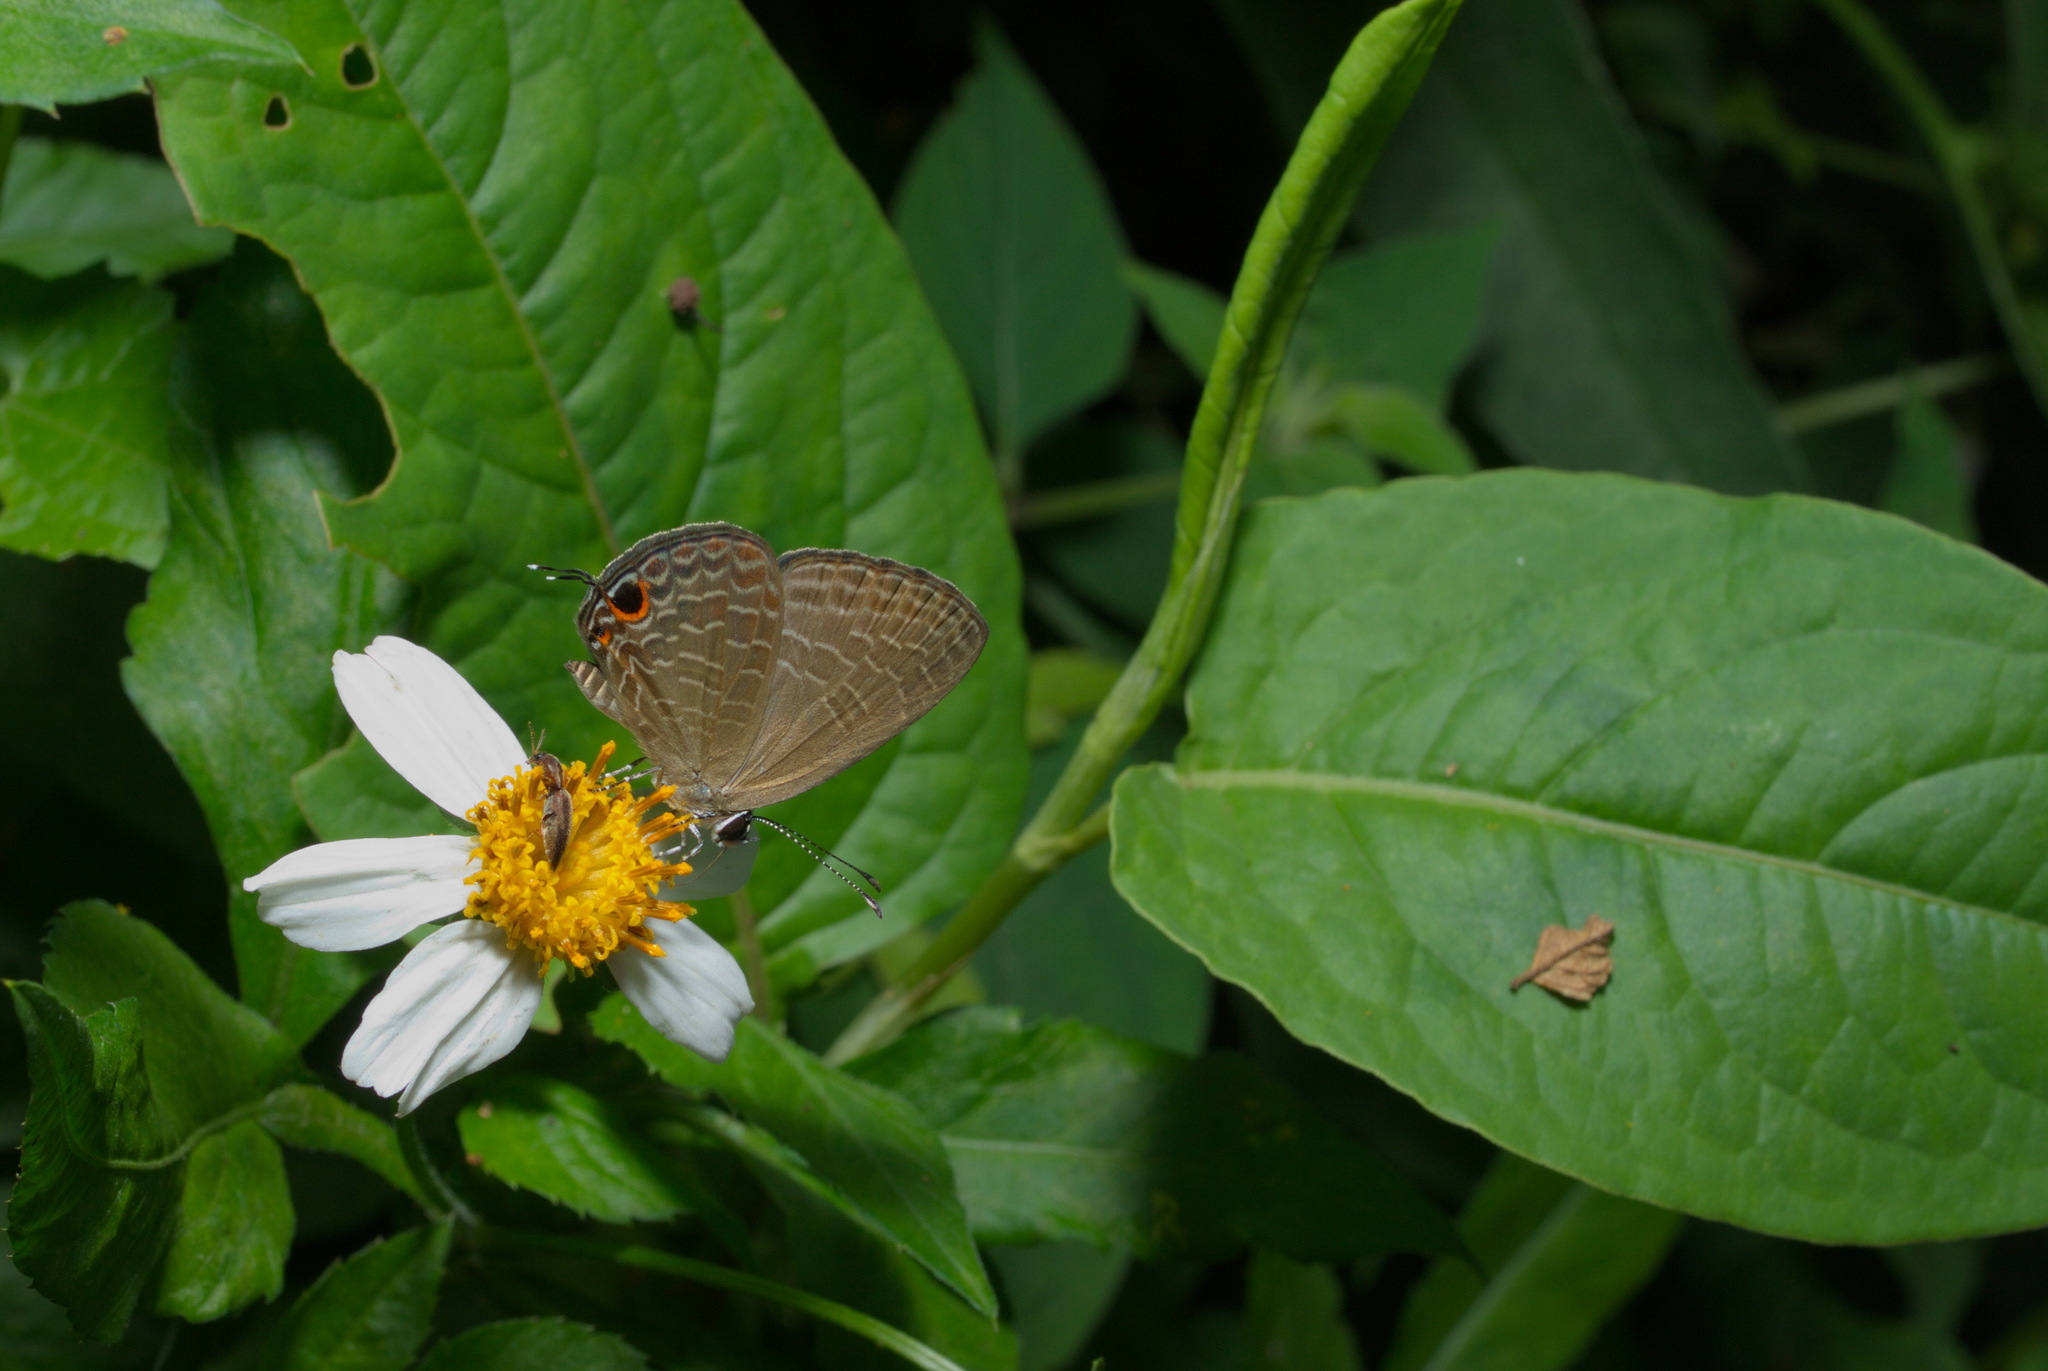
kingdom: Animalia
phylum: Arthropoda
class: Insecta
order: Lepidoptera
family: Lycaenidae
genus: Jamides
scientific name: Jamides bochus
